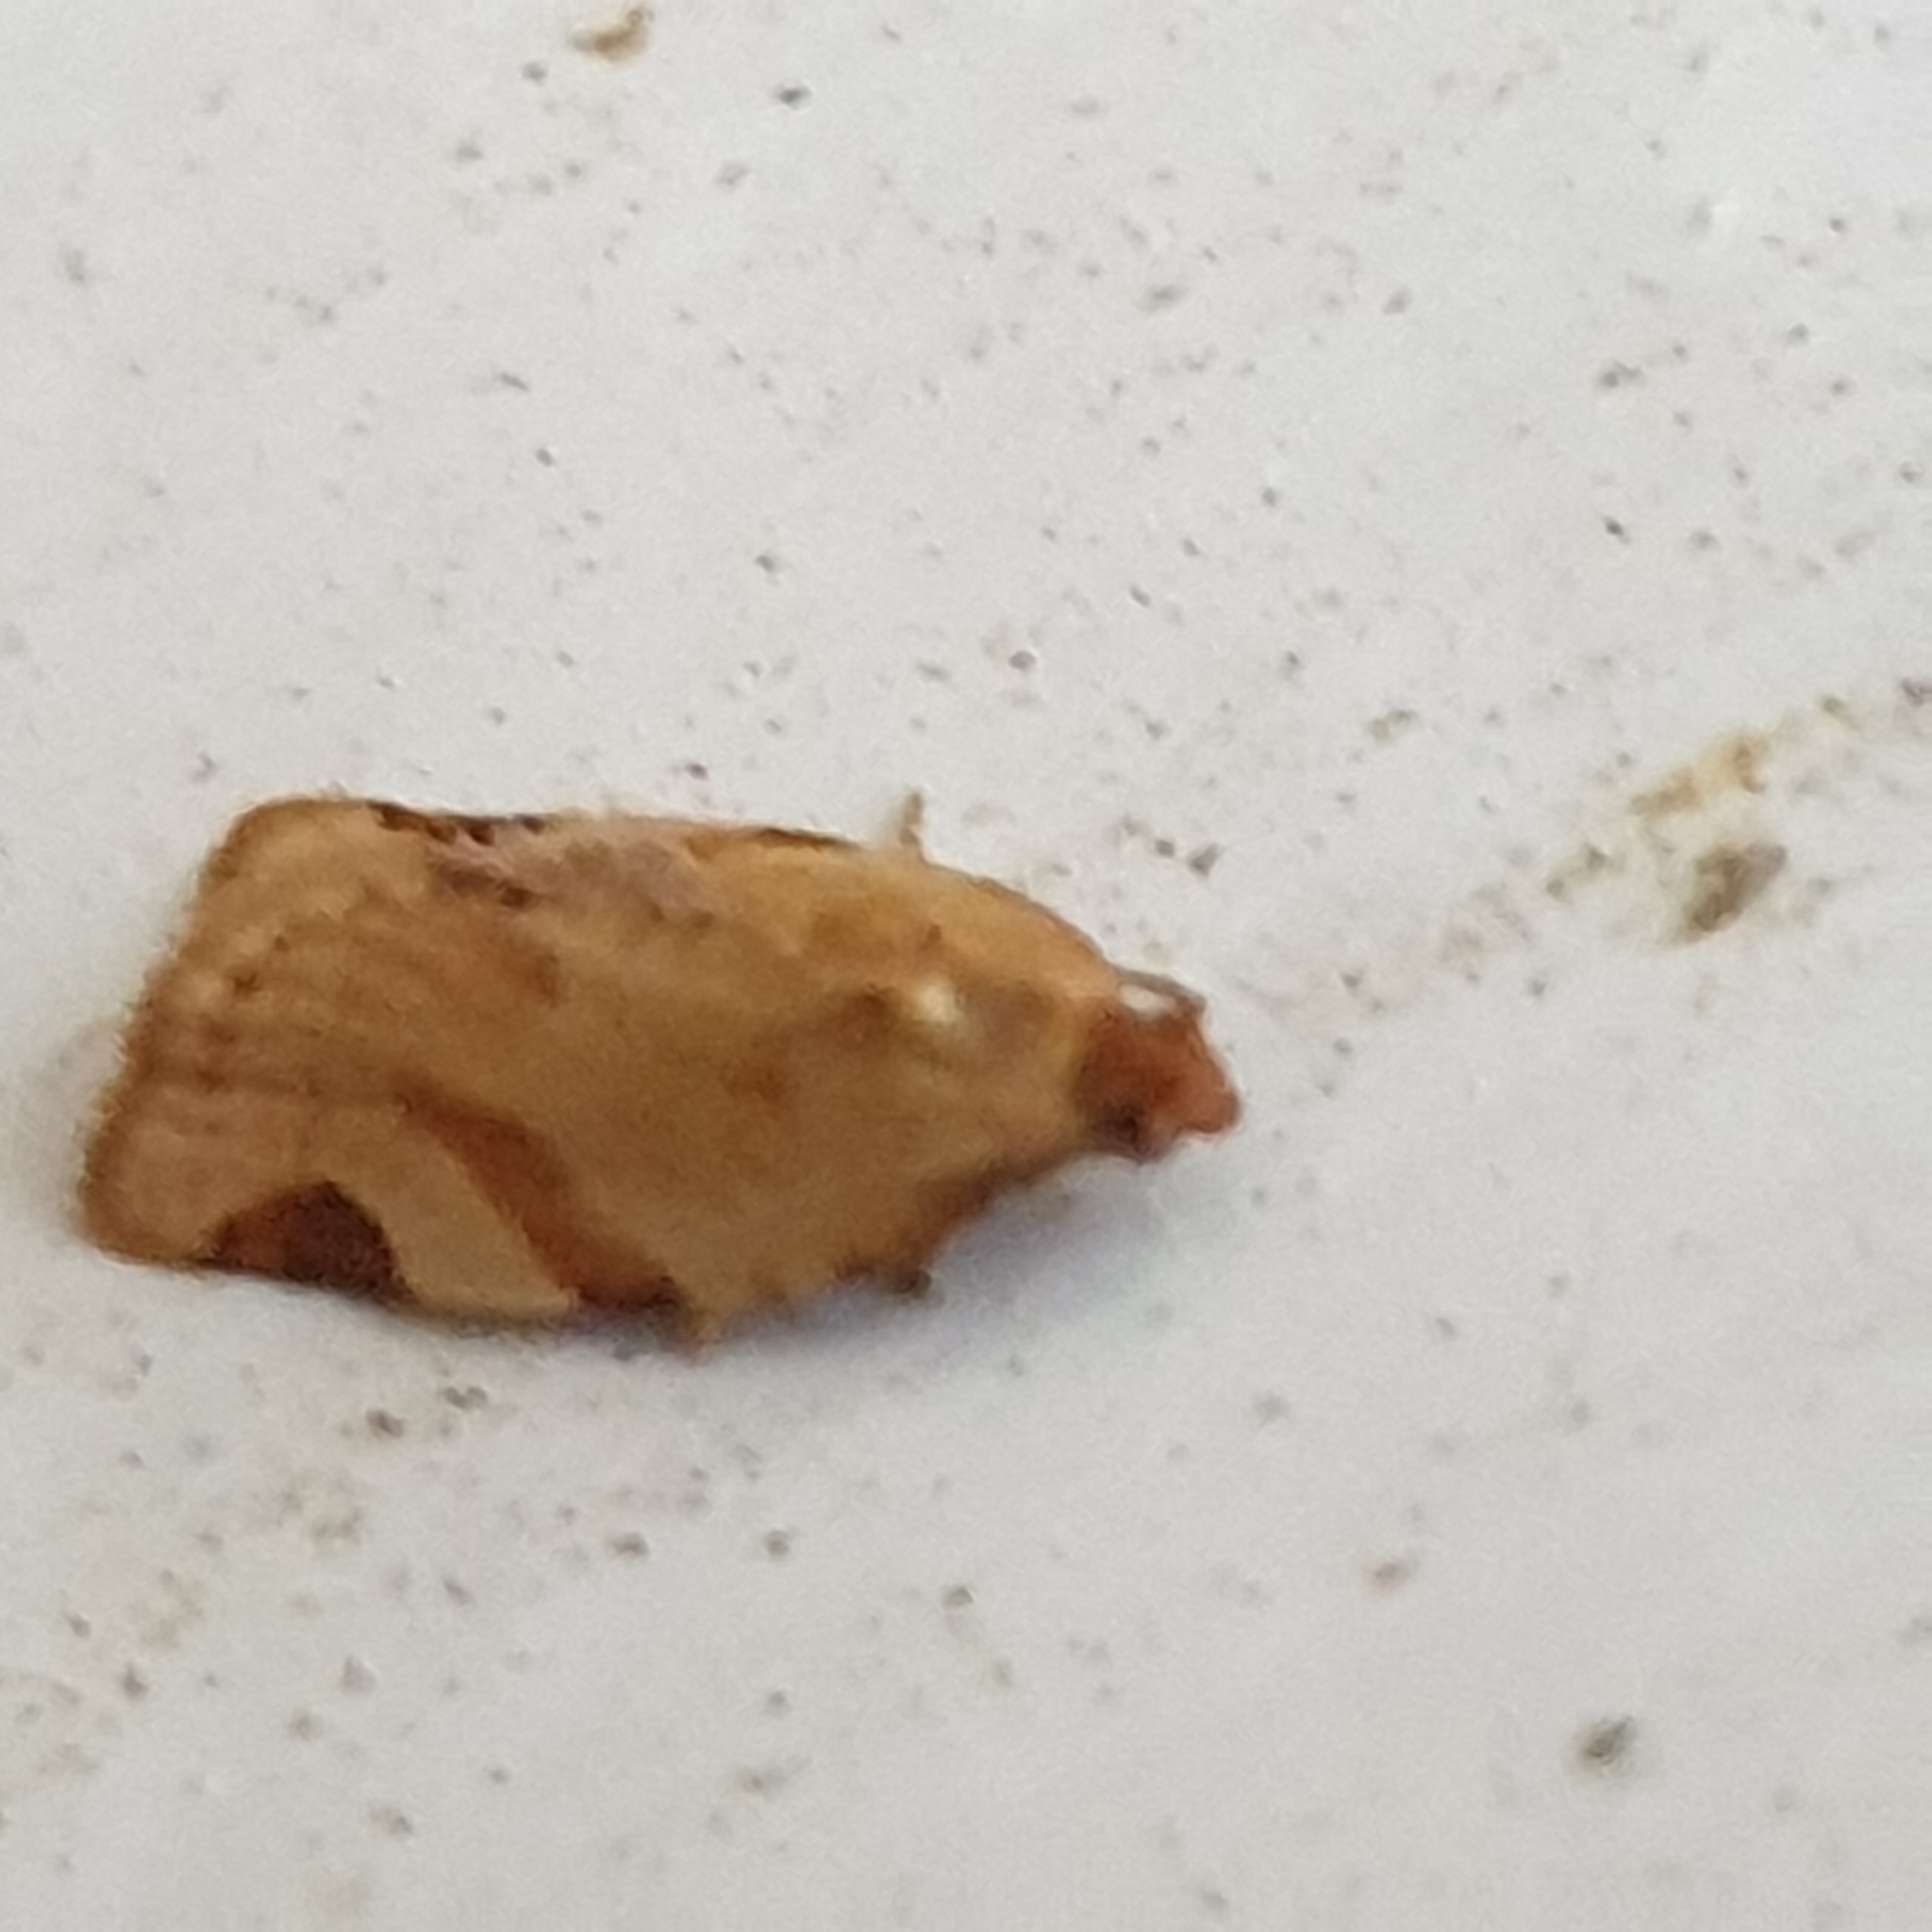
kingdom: Animalia
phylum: Arthropoda
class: Insecta
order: Lepidoptera
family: Tortricidae
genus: Paramesia
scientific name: Paramesia gnomana
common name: Small straw twist
